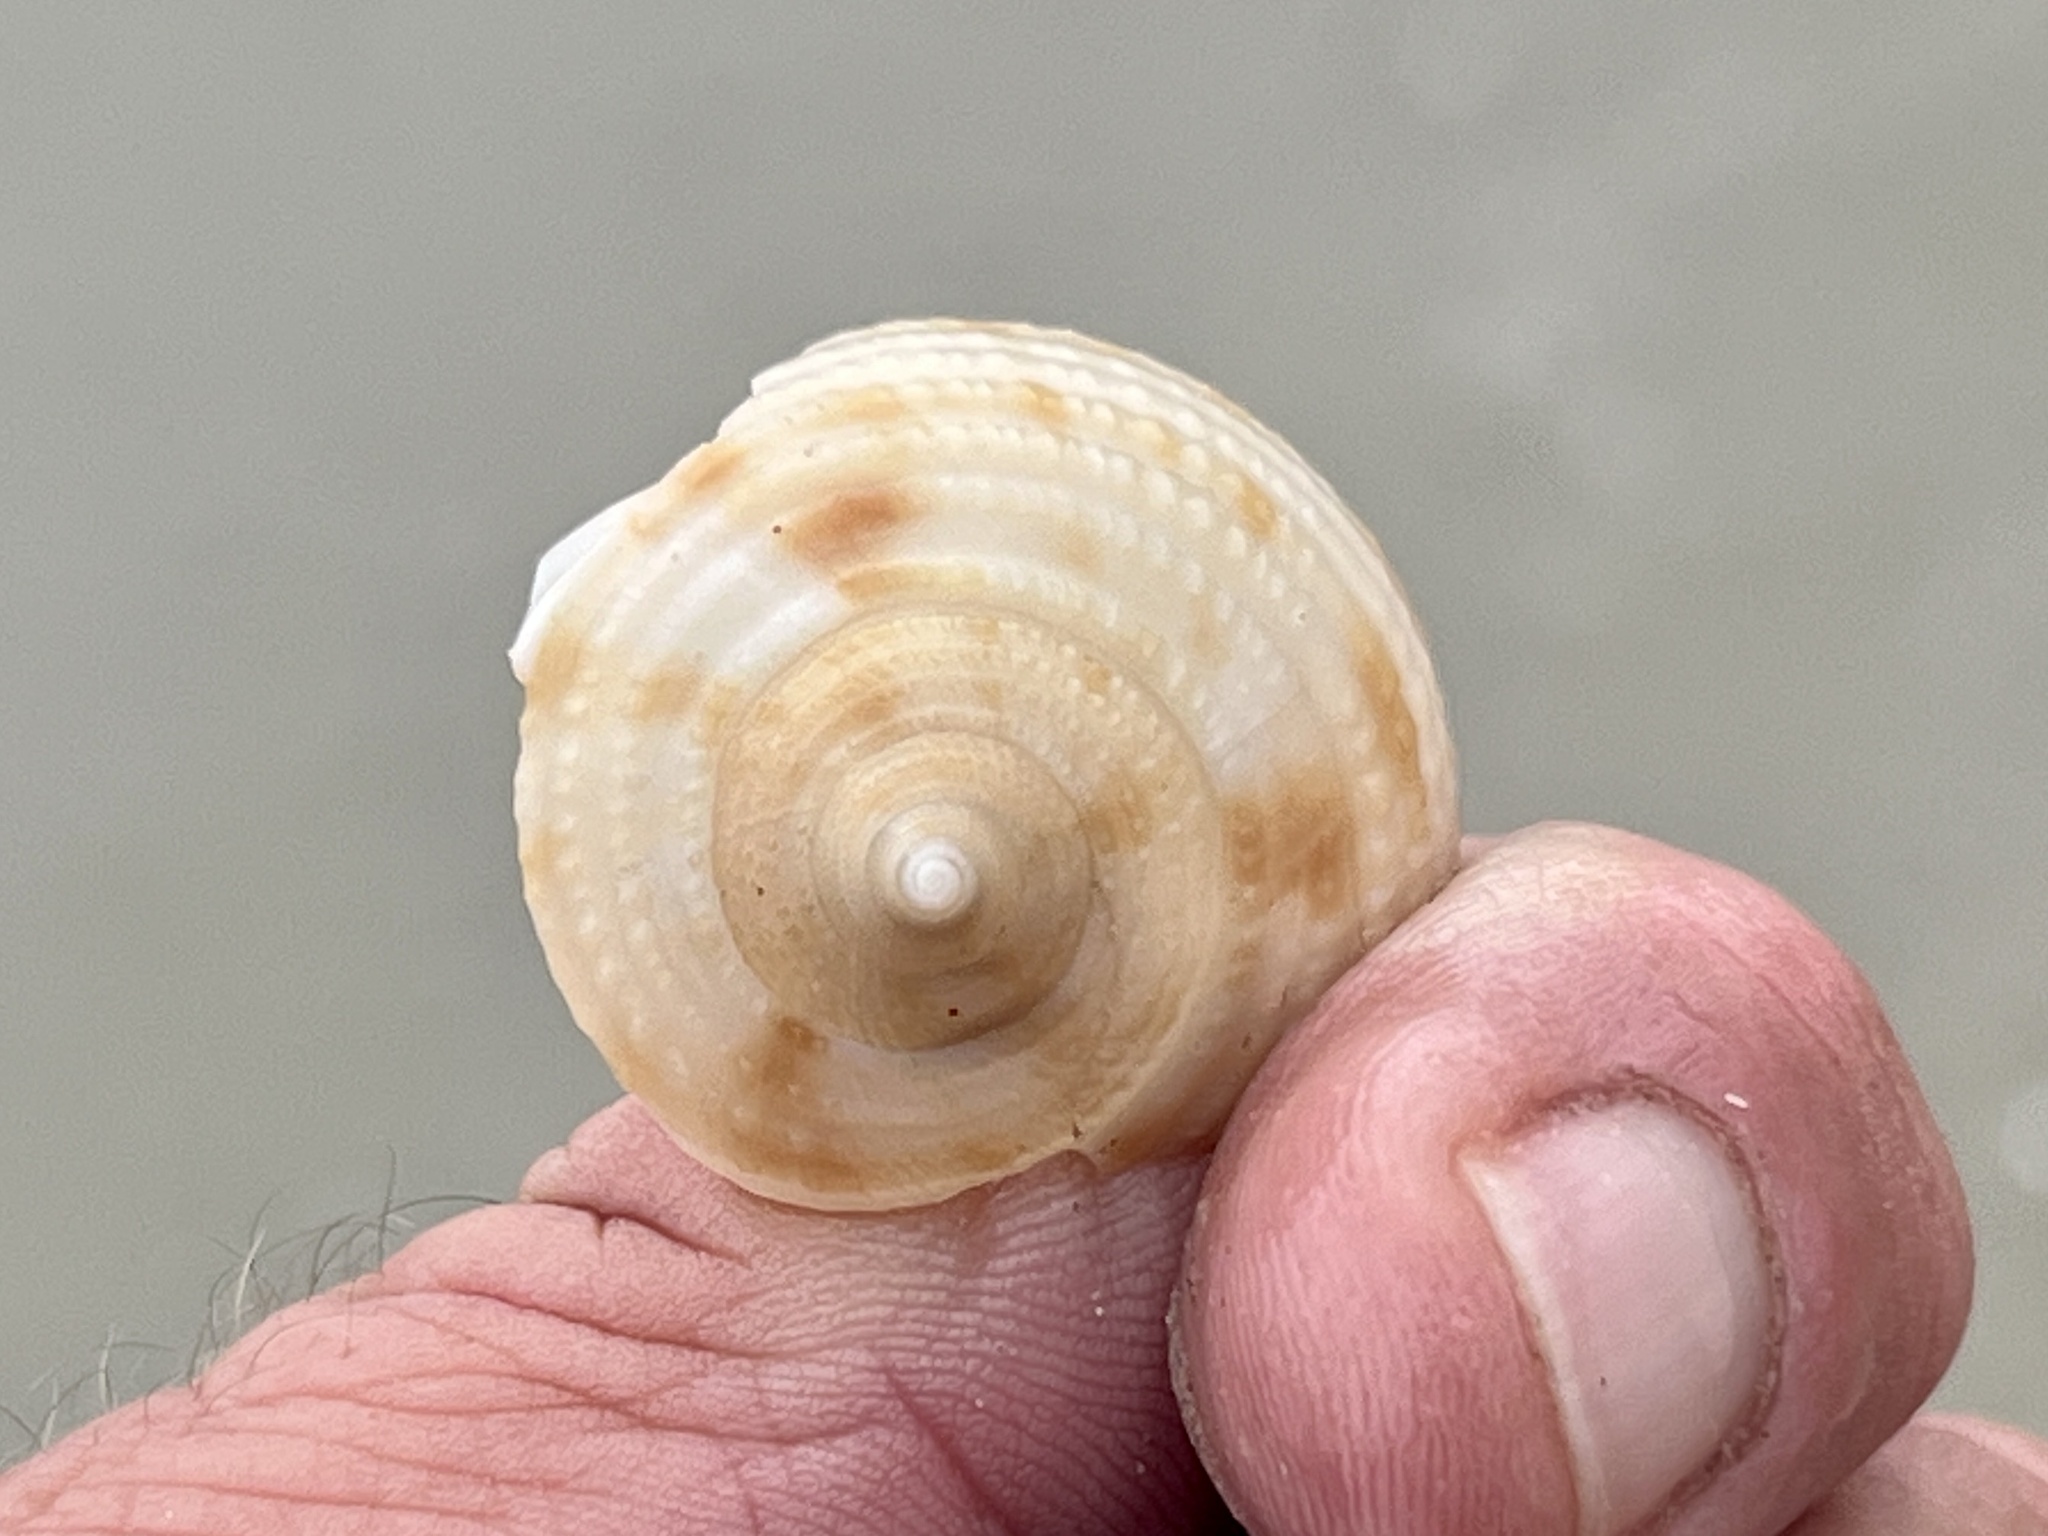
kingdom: Animalia
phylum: Mollusca
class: Gastropoda
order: Littorinimorpha
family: Cassidae
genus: Semicassis
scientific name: Semicassis granulata
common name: Scotch bonnet
